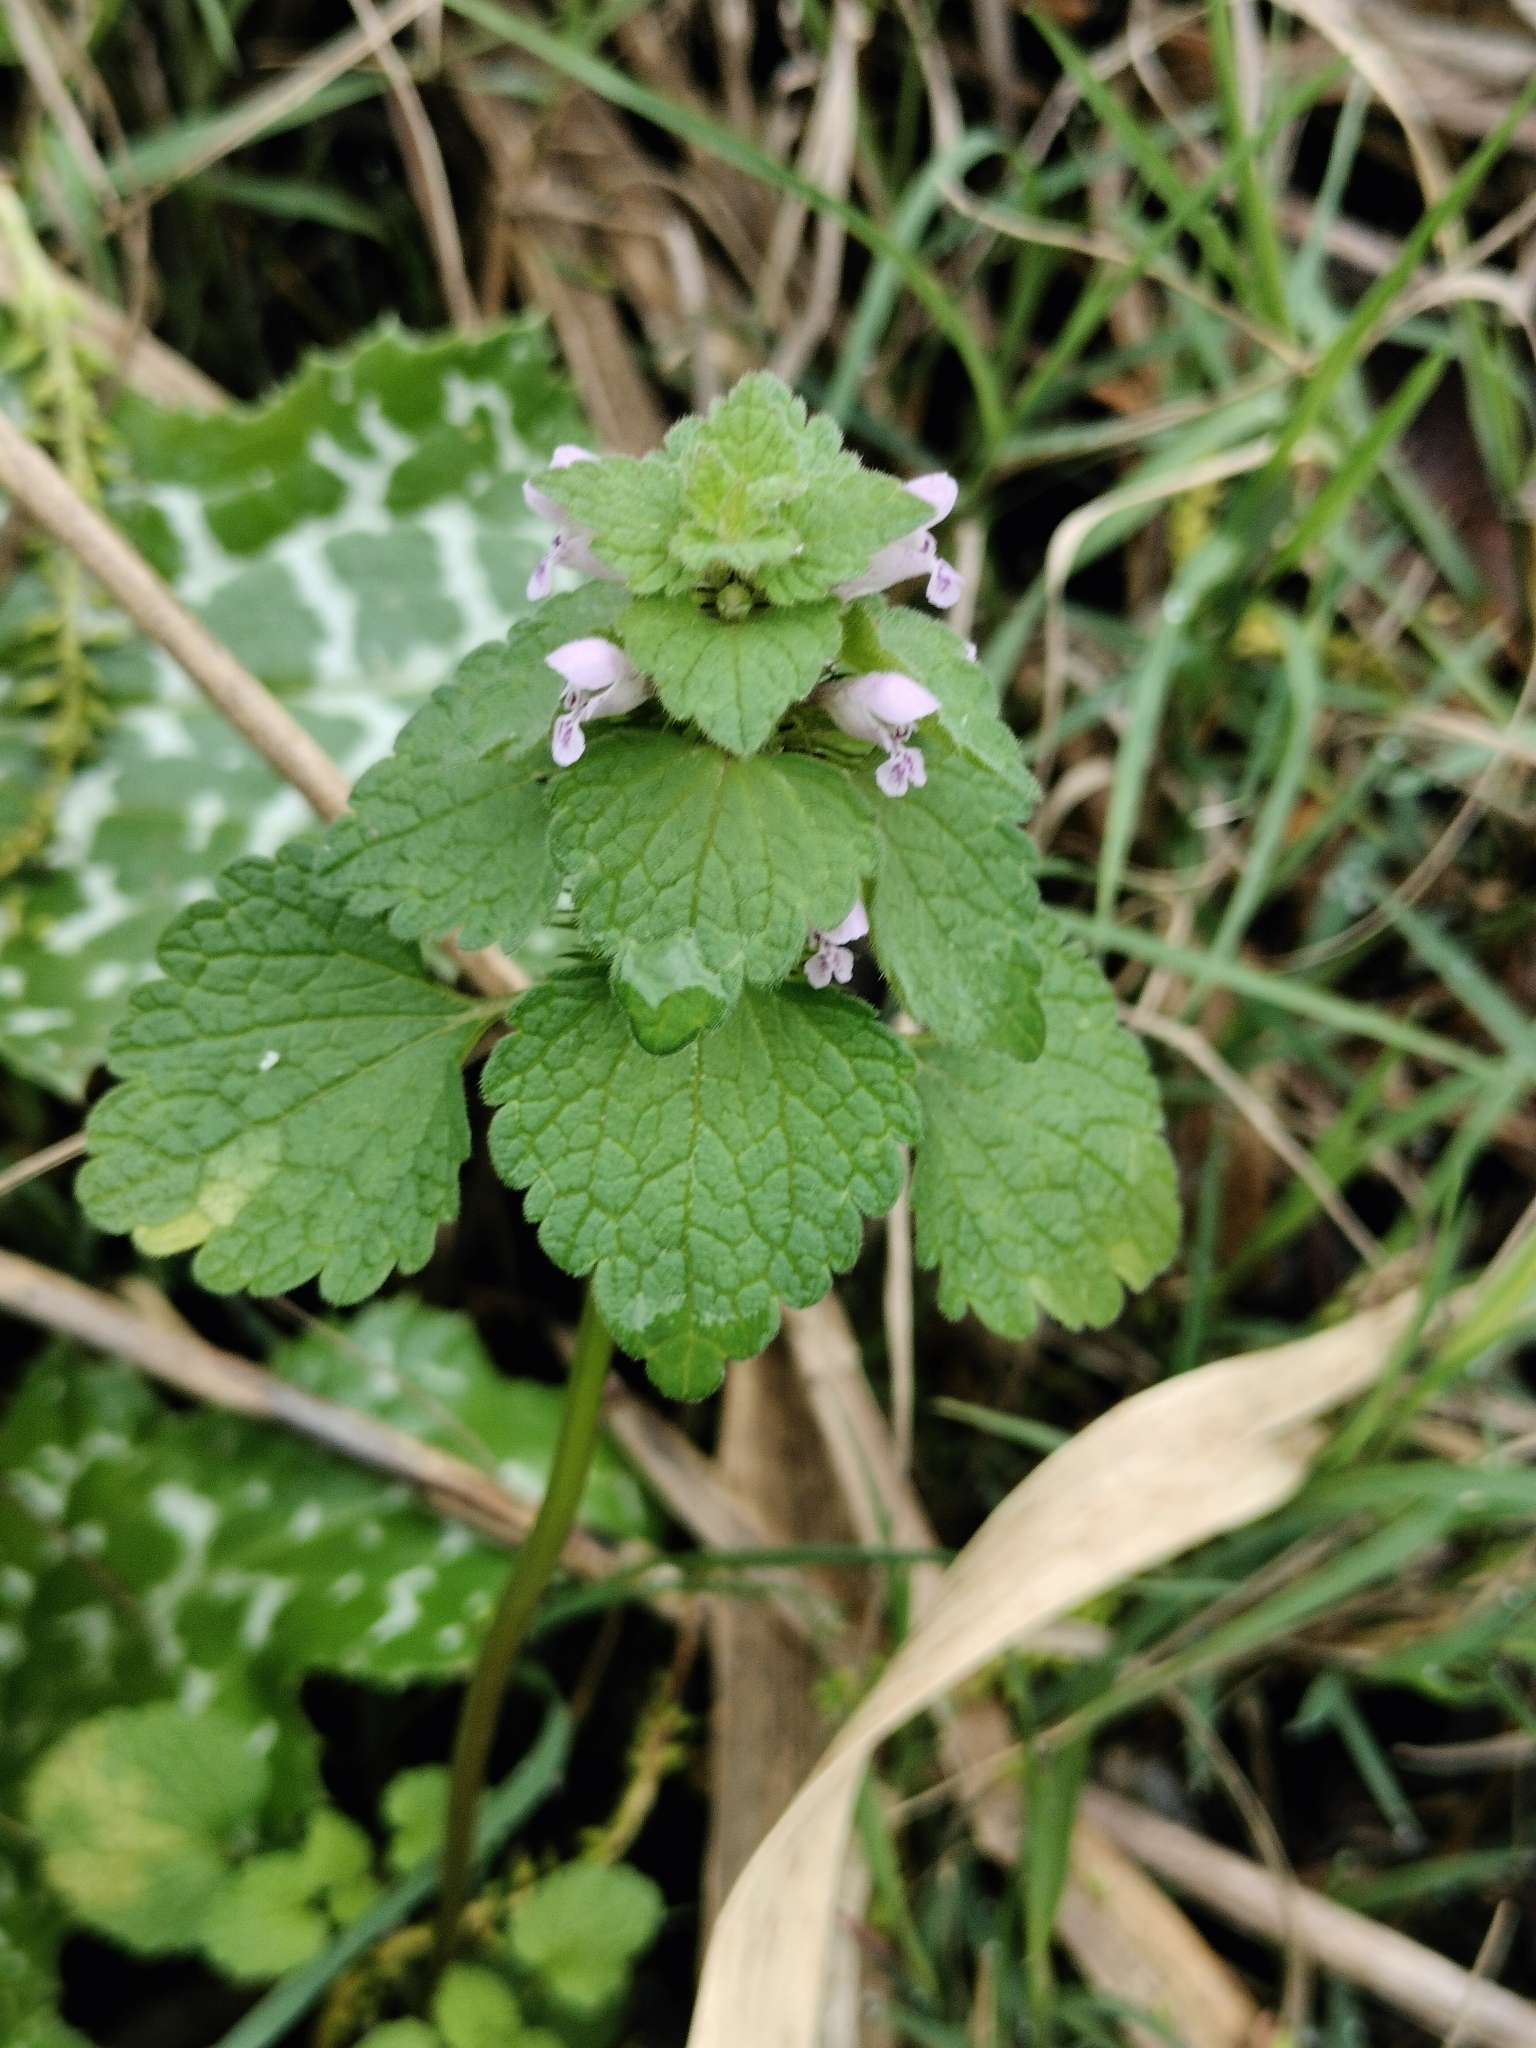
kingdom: Plantae
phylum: Tracheophyta
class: Magnoliopsida
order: Lamiales
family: Lamiaceae
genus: Lamium
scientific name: Lamium purpureum
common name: Red dead-nettle
